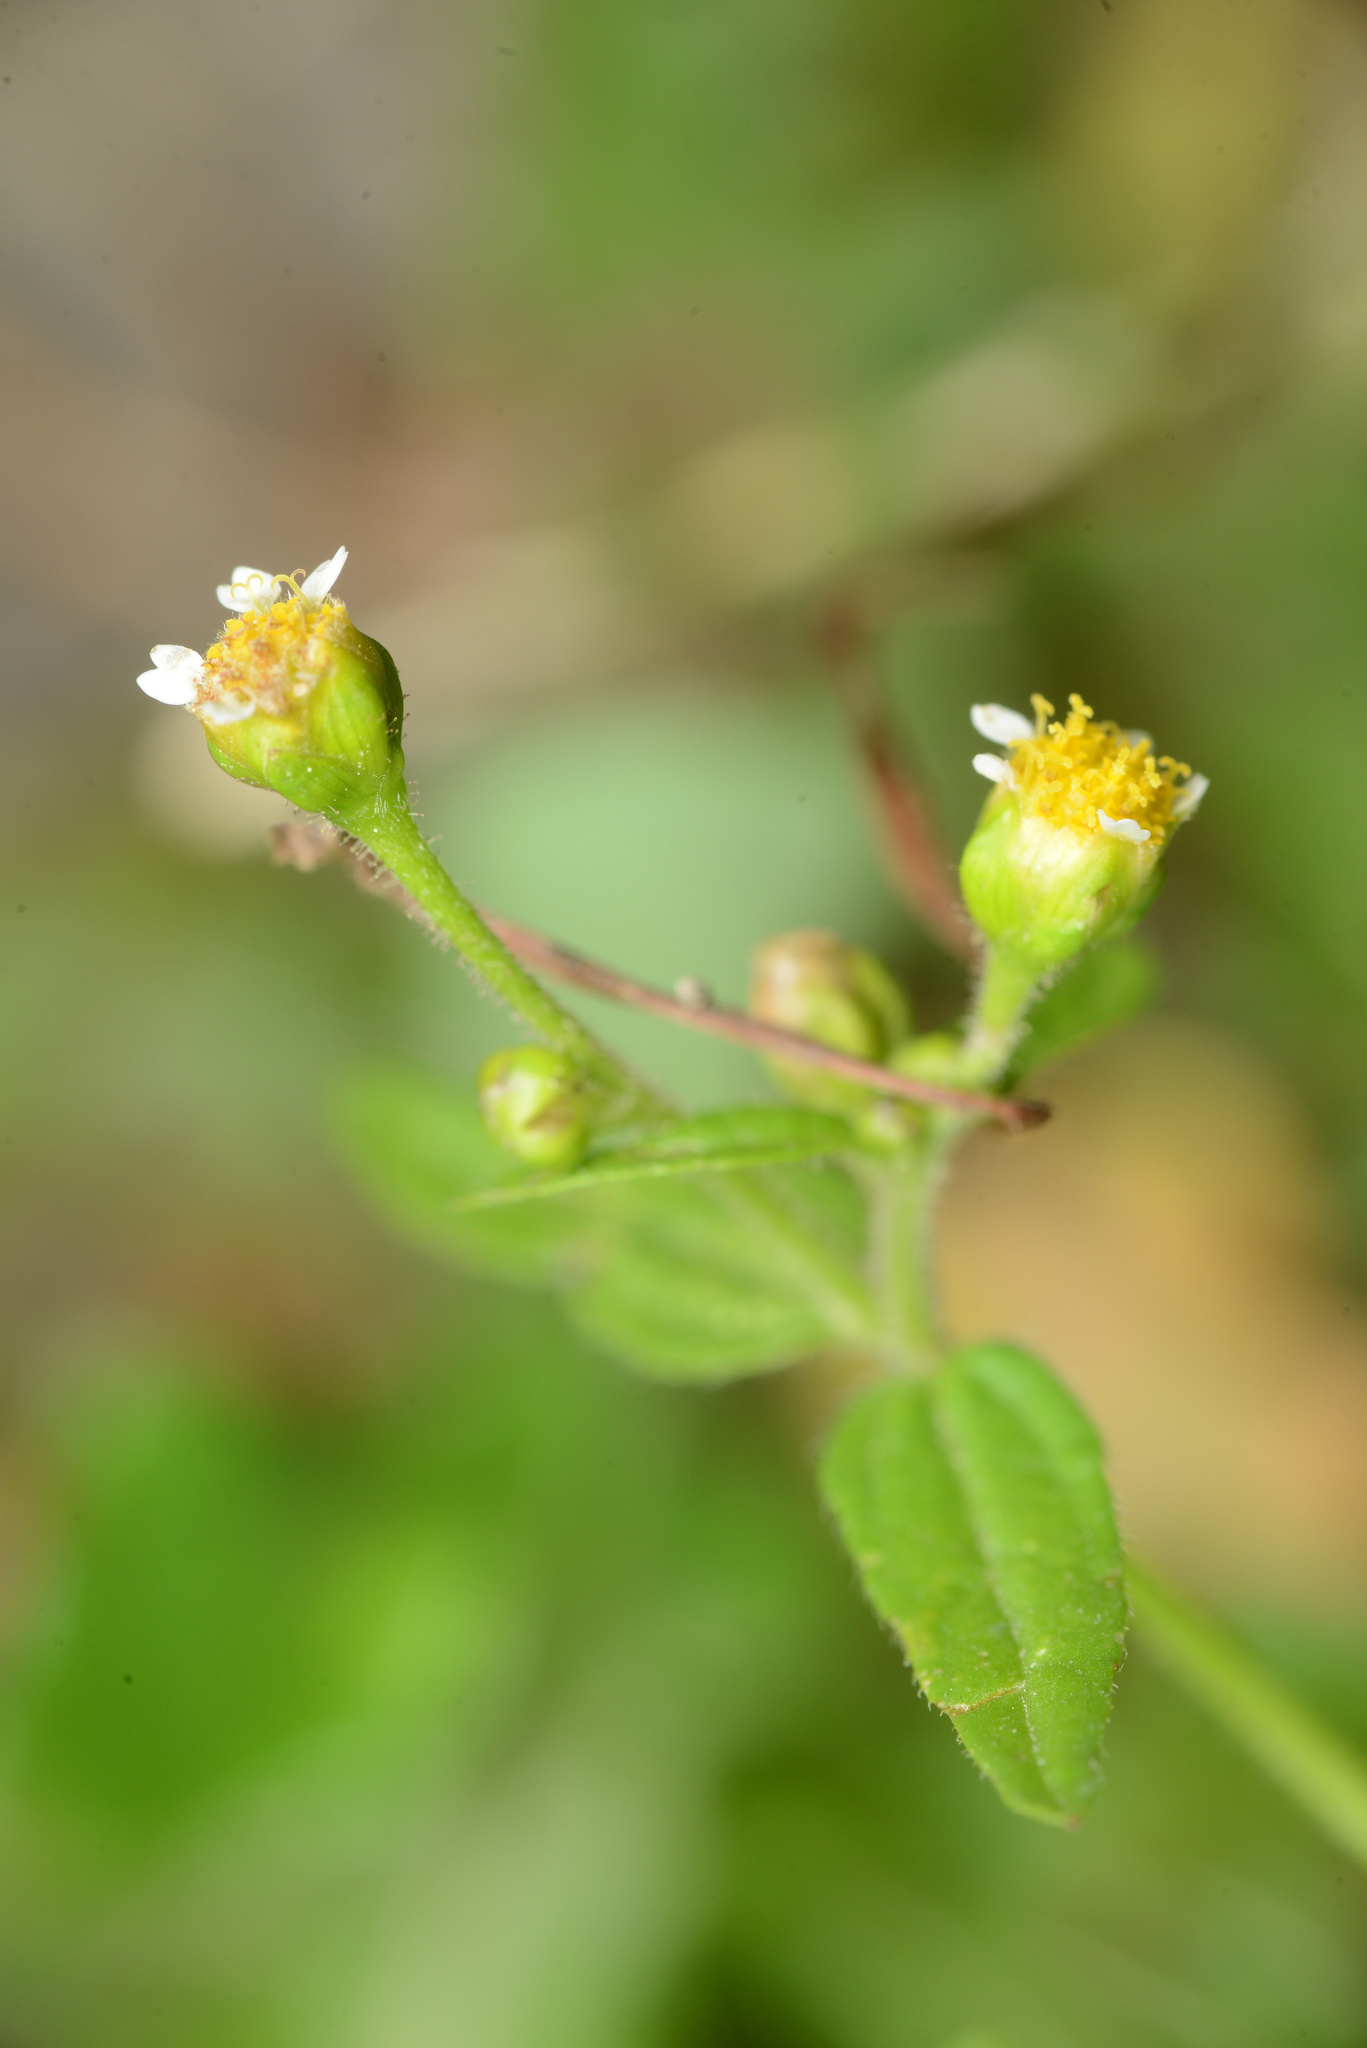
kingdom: Plantae
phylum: Tracheophyta
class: Magnoliopsida
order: Asterales
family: Asteraceae
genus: Galinsoga
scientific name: Galinsoga parviflora
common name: Gallant soldier
